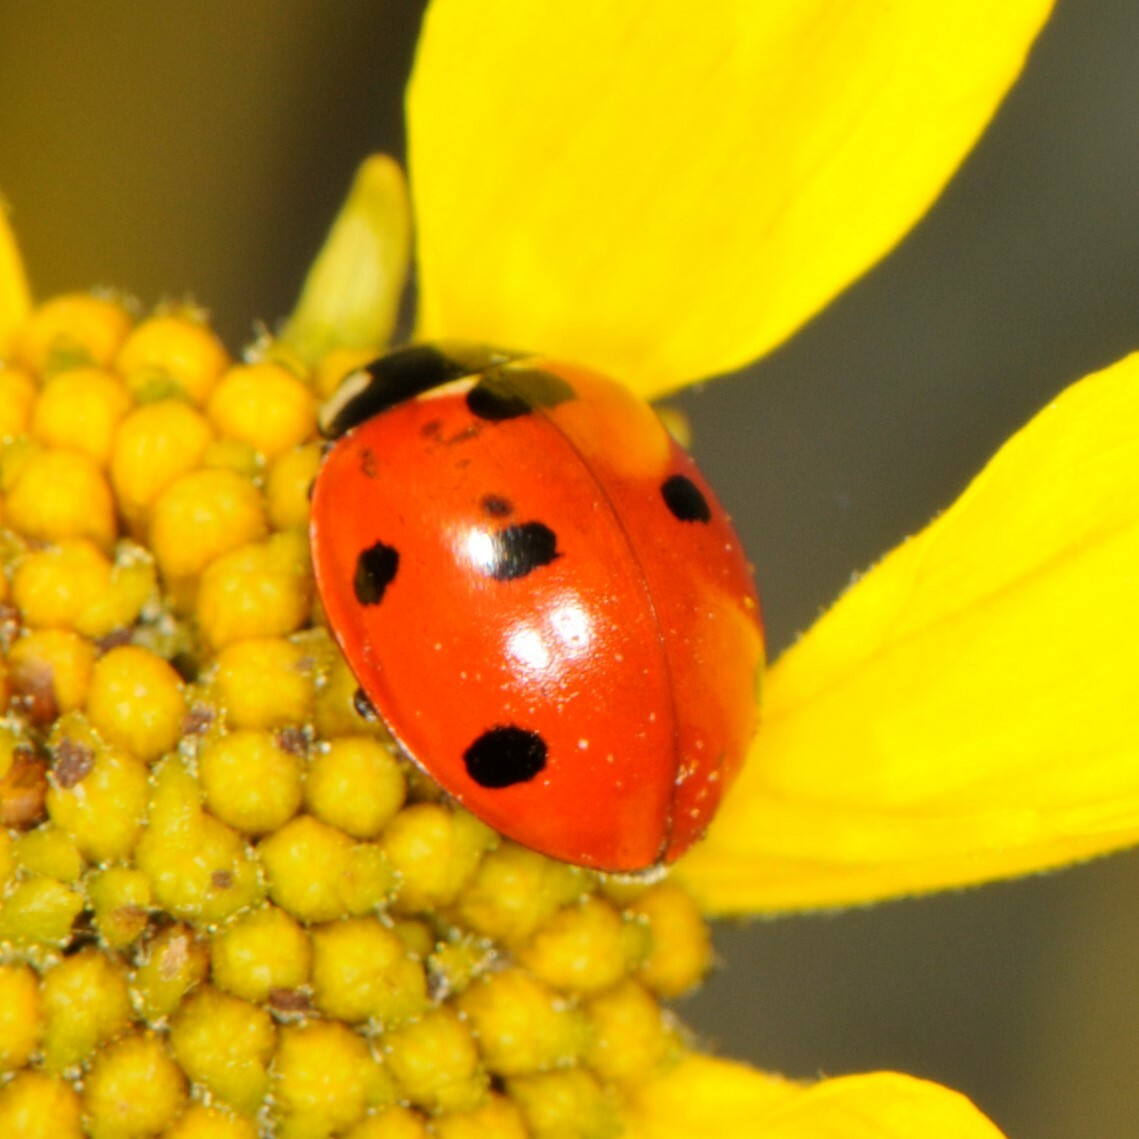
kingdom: Animalia
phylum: Arthropoda
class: Insecta
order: Coleoptera
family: Coccinellidae
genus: Coccinella
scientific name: Coccinella septempunctata
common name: Sevenspotted lady beetle
